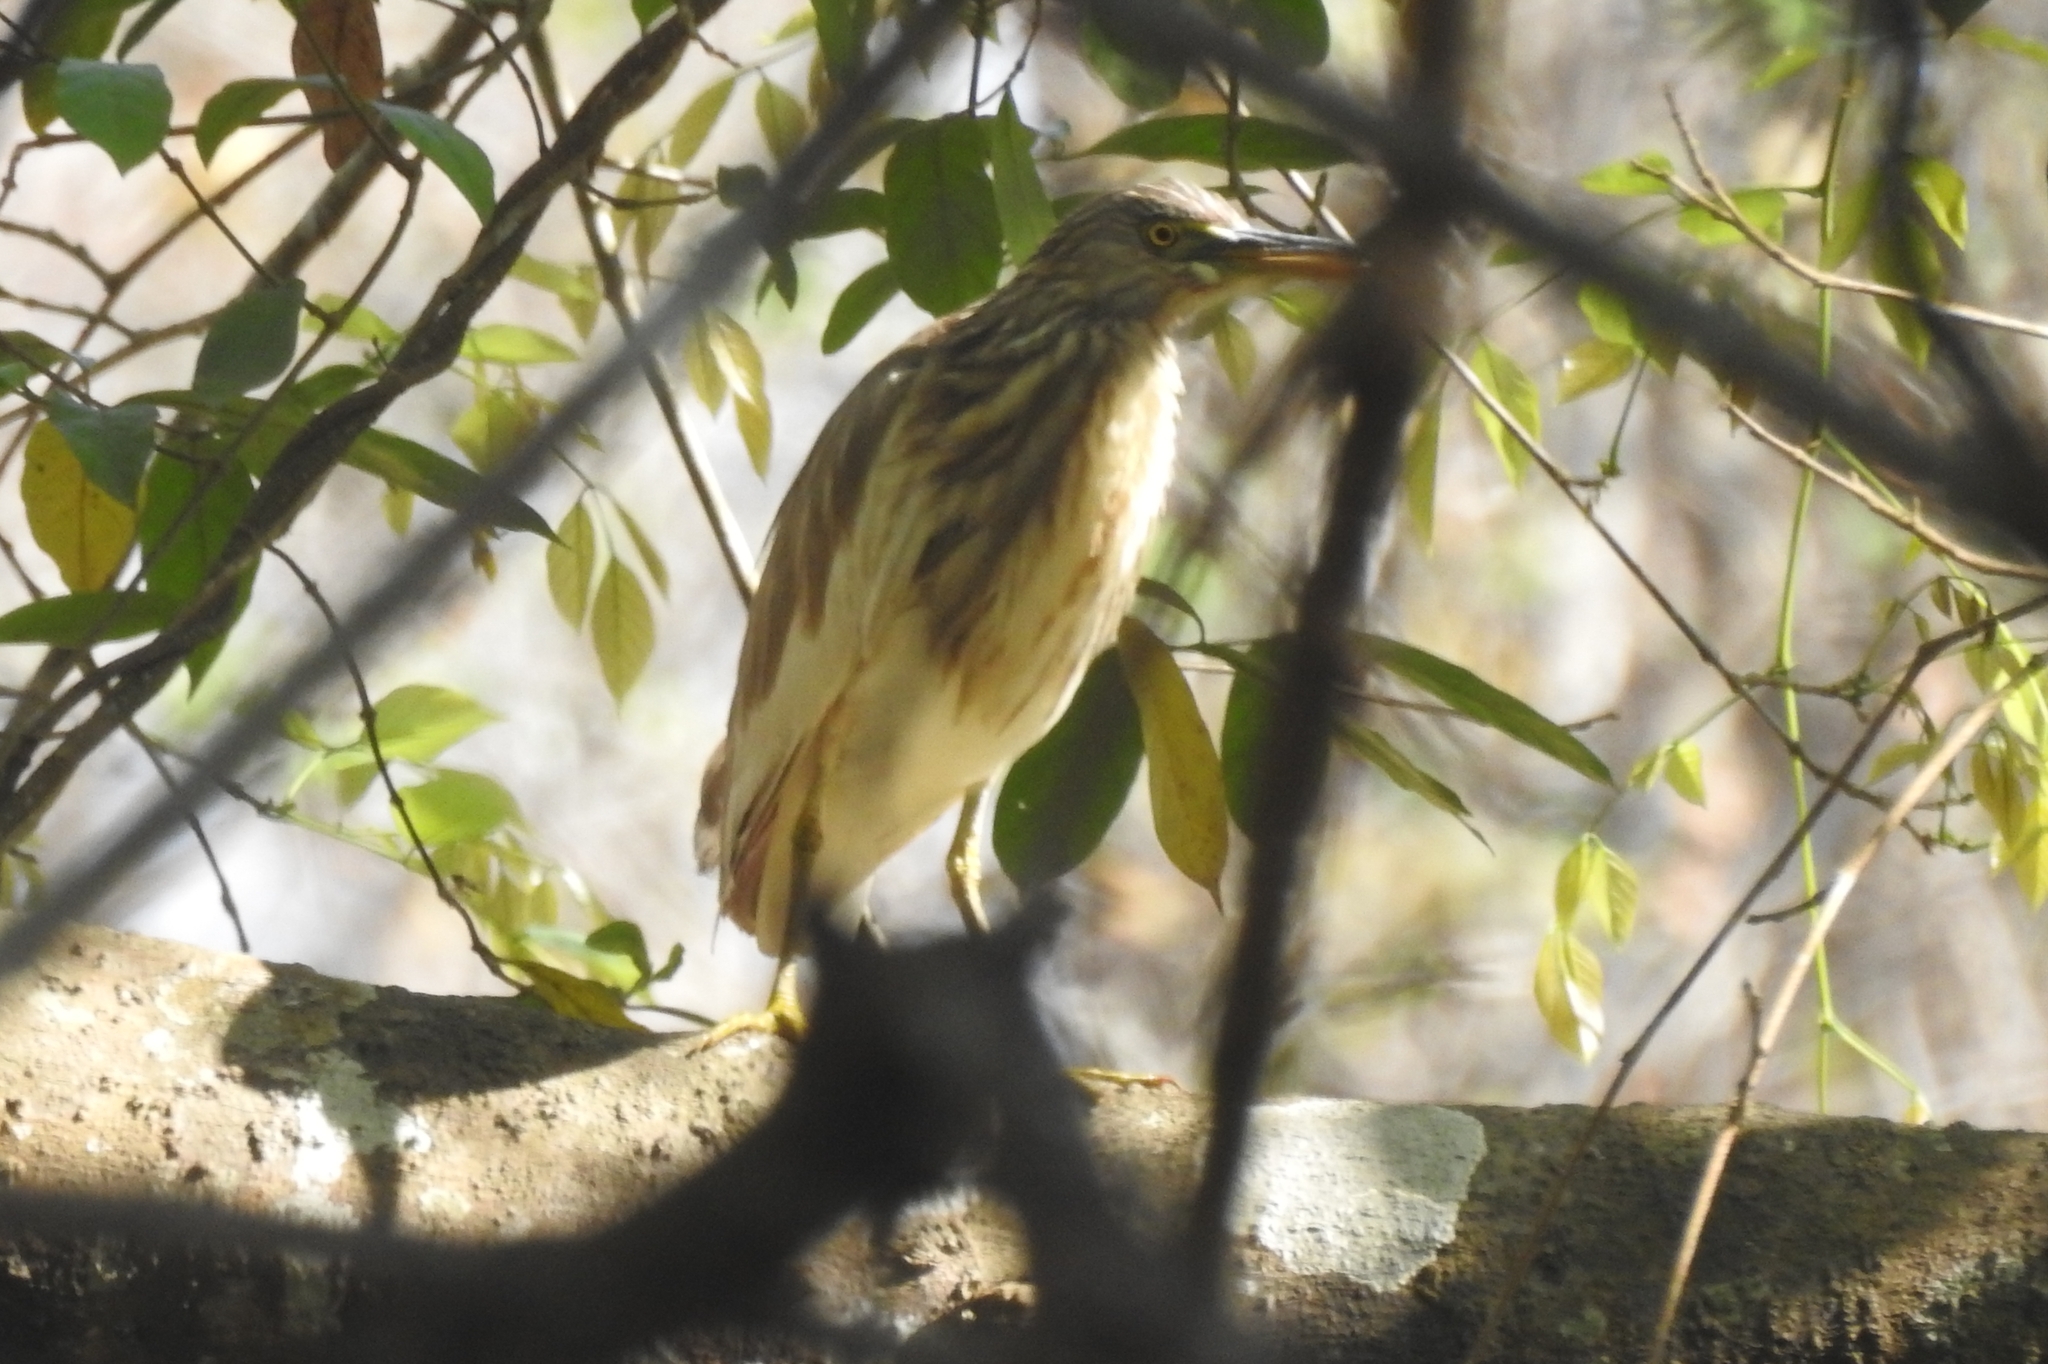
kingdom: Animalia
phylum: Chordata
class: Aves
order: Pelecaniformes
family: Ardeidae
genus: Ardeola
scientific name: Ardeola grayii
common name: Indian pond heron
